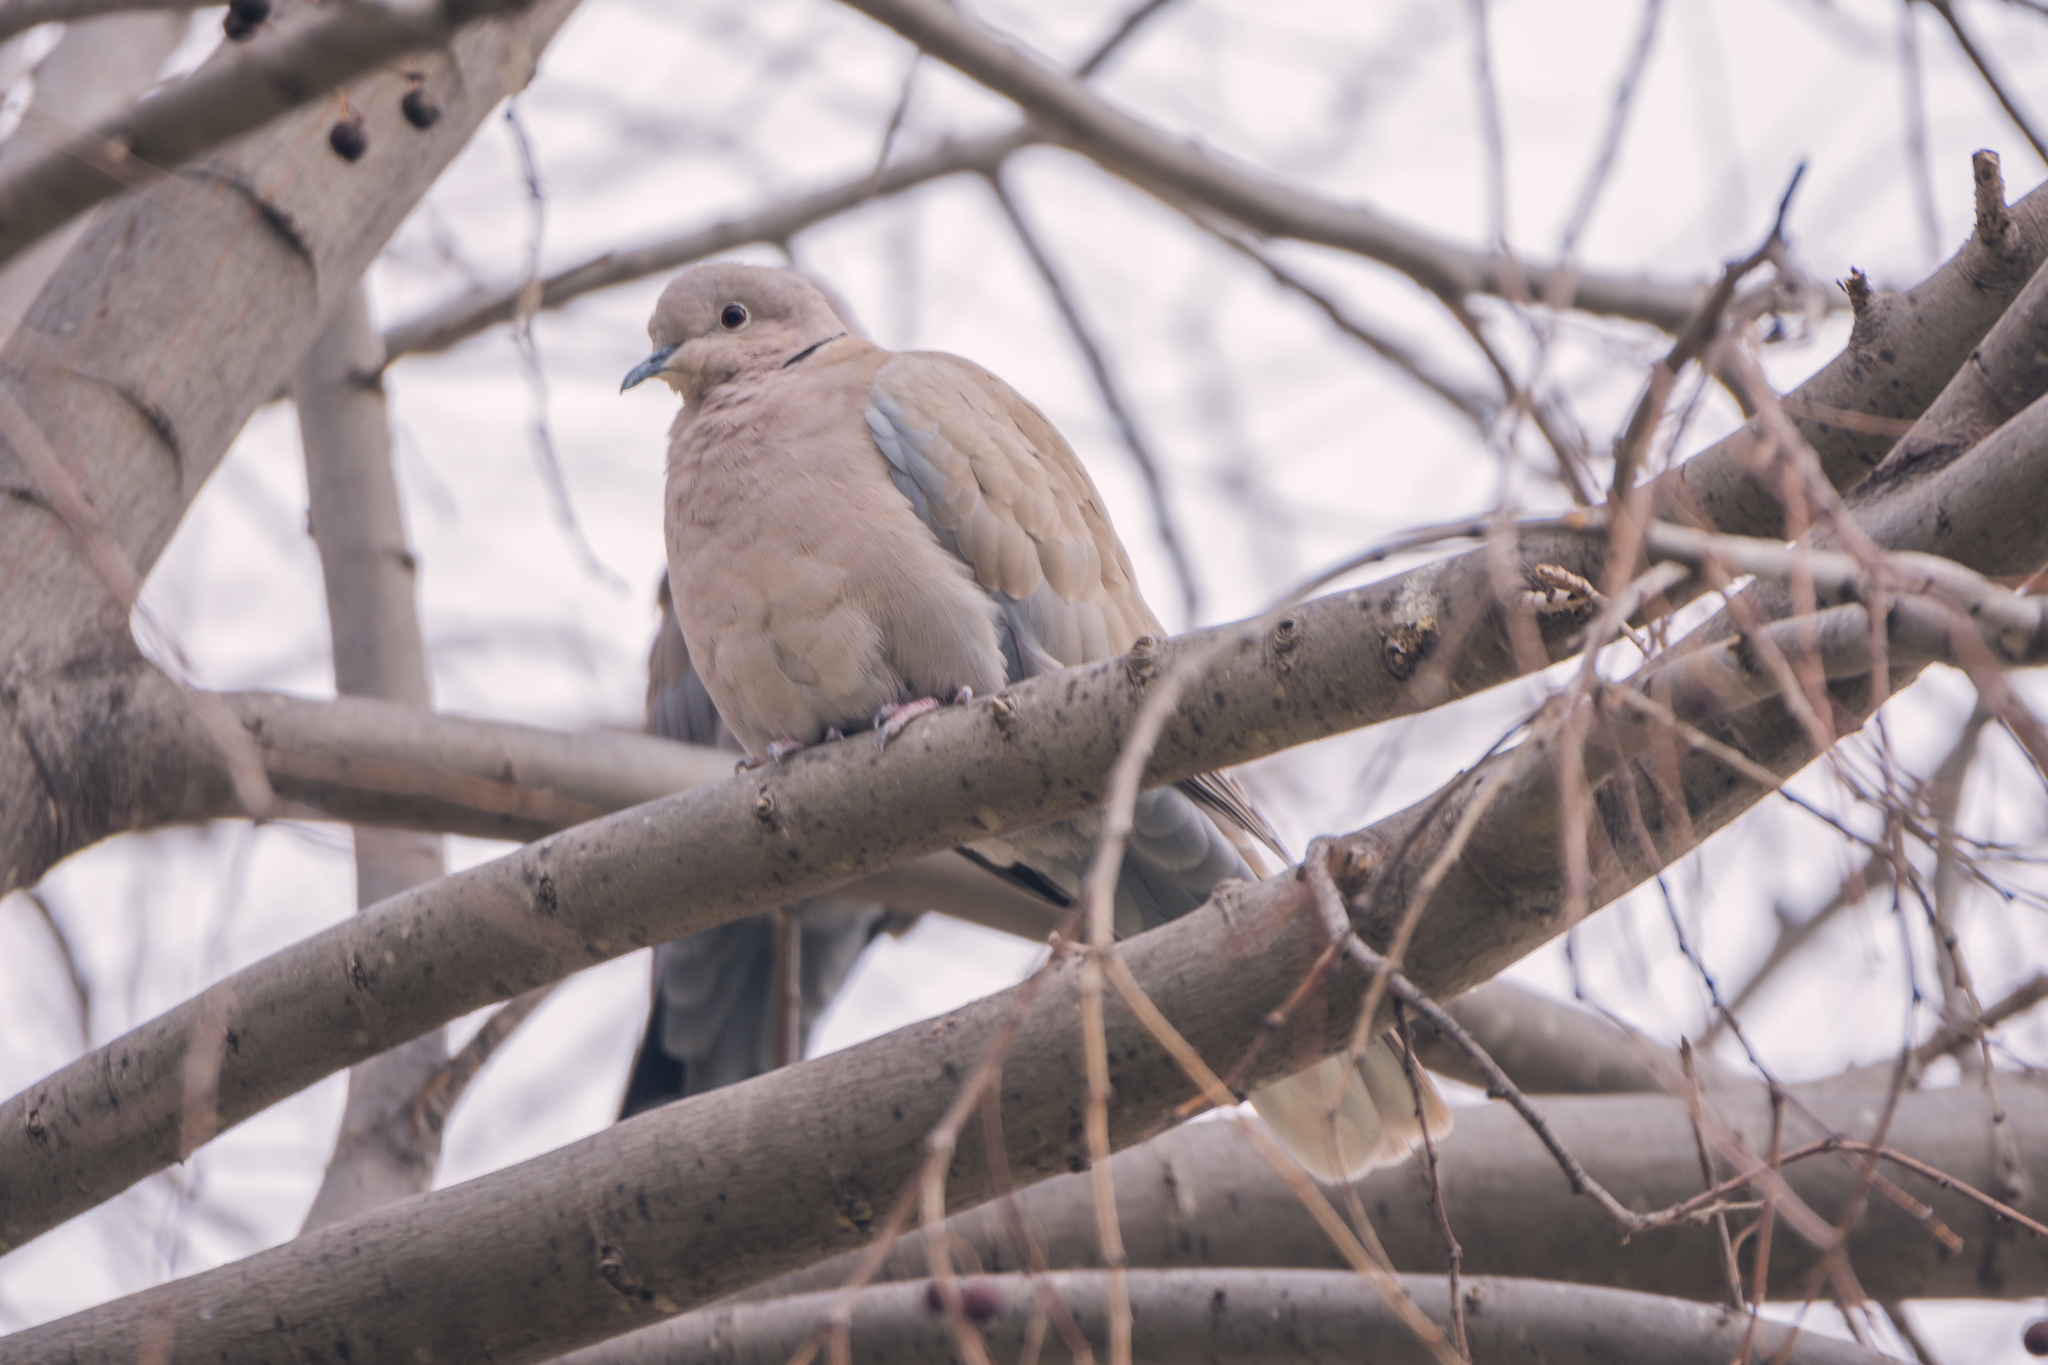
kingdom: Animalia
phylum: Chordata
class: Aves
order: Columbiformes
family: Columbidae
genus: Streptopelia
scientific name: Streptopelia decaocto
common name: Eurasian collared dove
